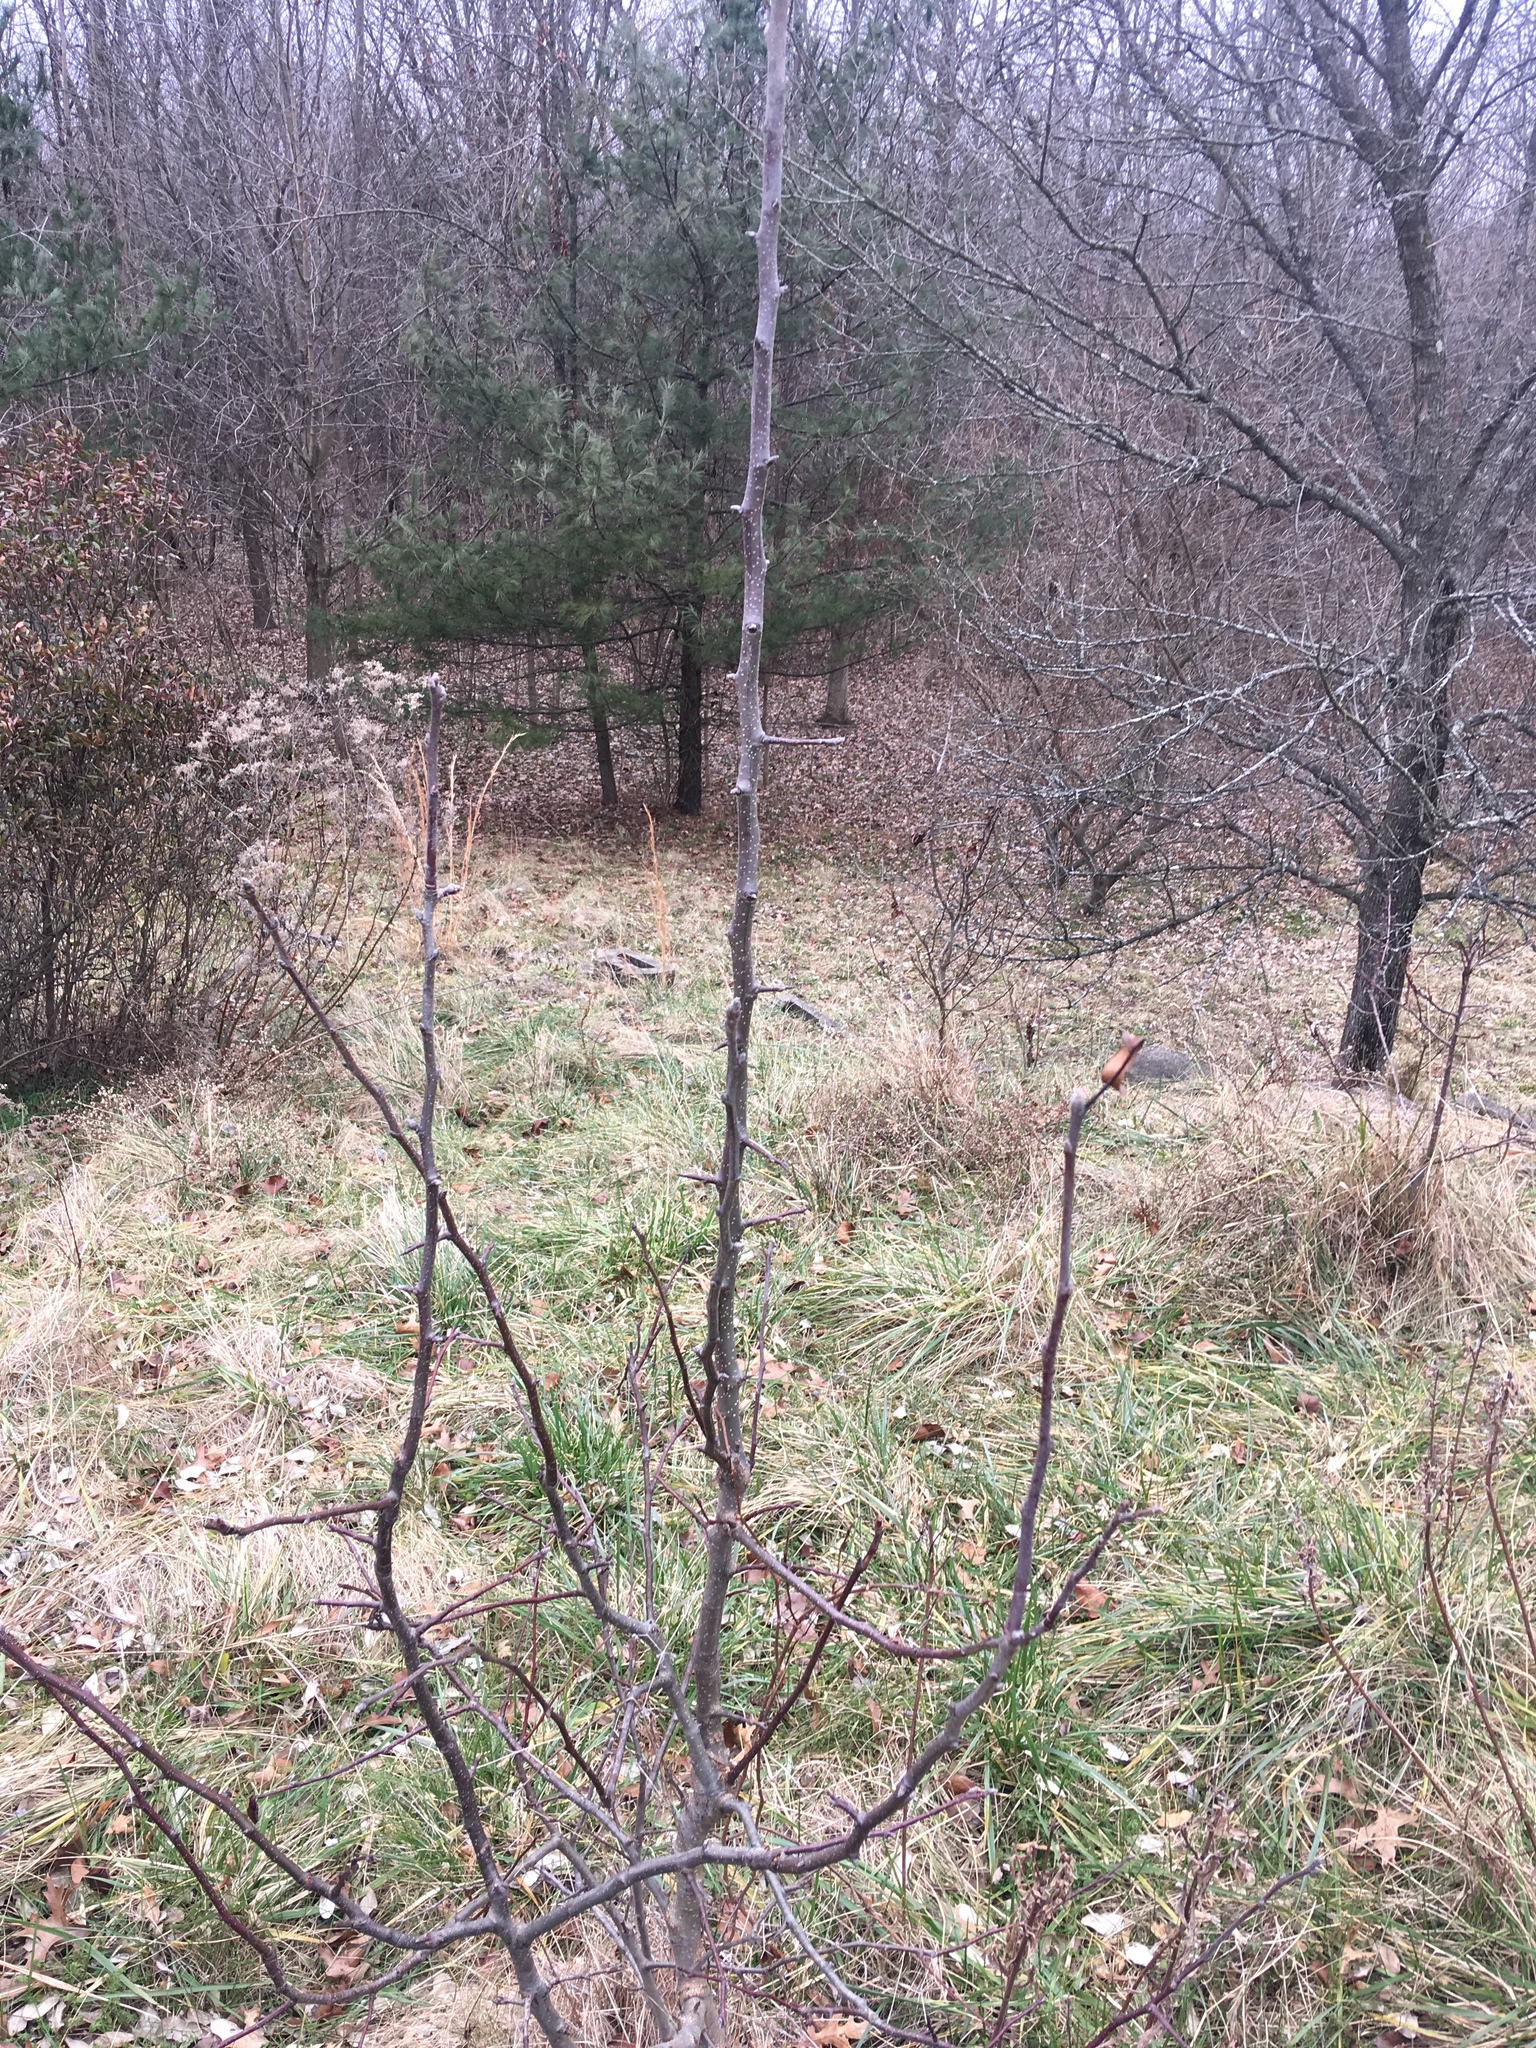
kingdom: Plantae
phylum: Tracheophyta
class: Magnoliopsida
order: Rosales
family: Rosaceae
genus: Pyrus
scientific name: Pyrus calleryana
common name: Callery pear
